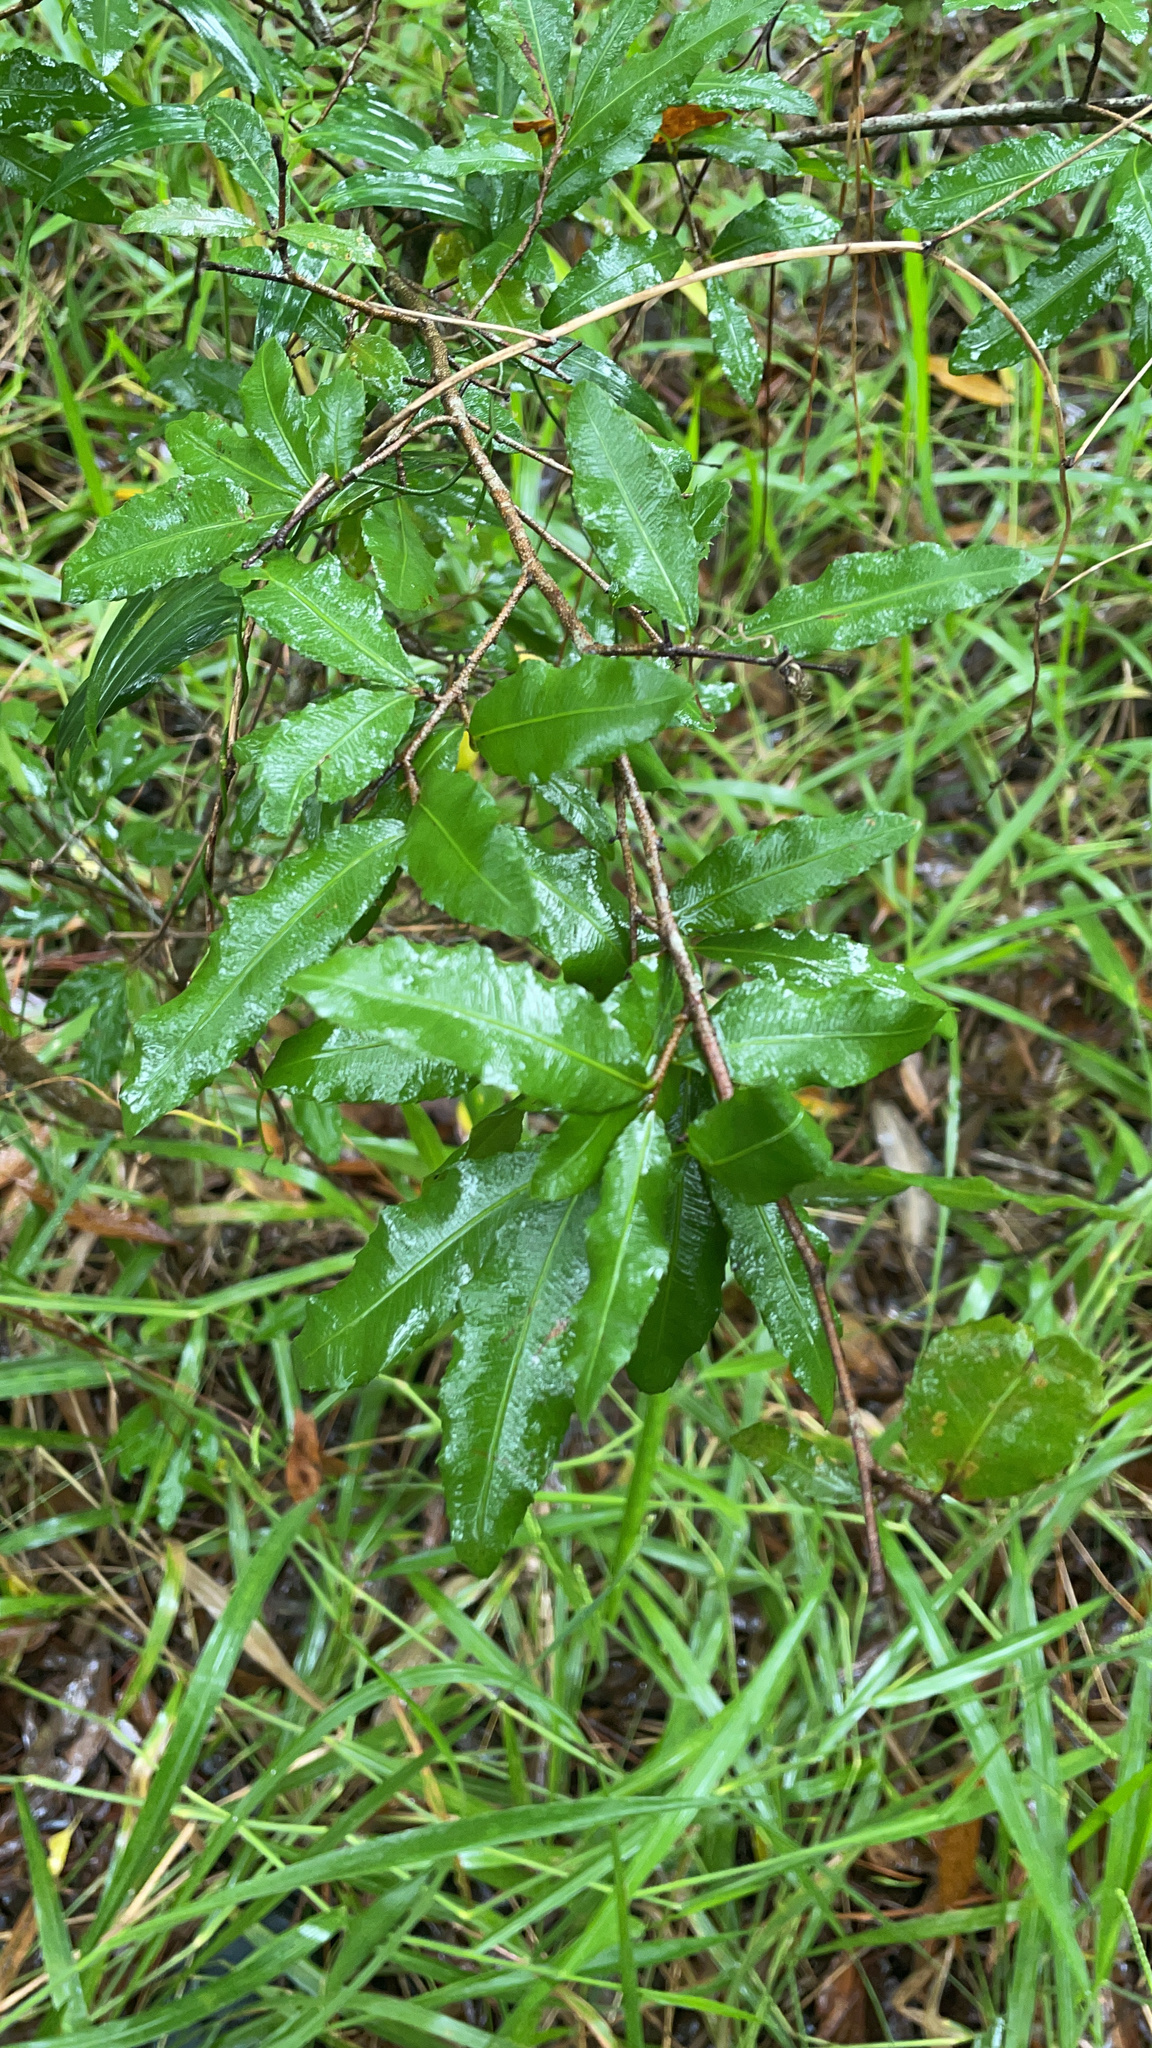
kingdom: Plantae
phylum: Tracheophyta
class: Magnoliopsida
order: Malpighiales
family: Ochnaceae
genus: Ochna
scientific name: Ochna serrulata
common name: Mickey mouse plant
